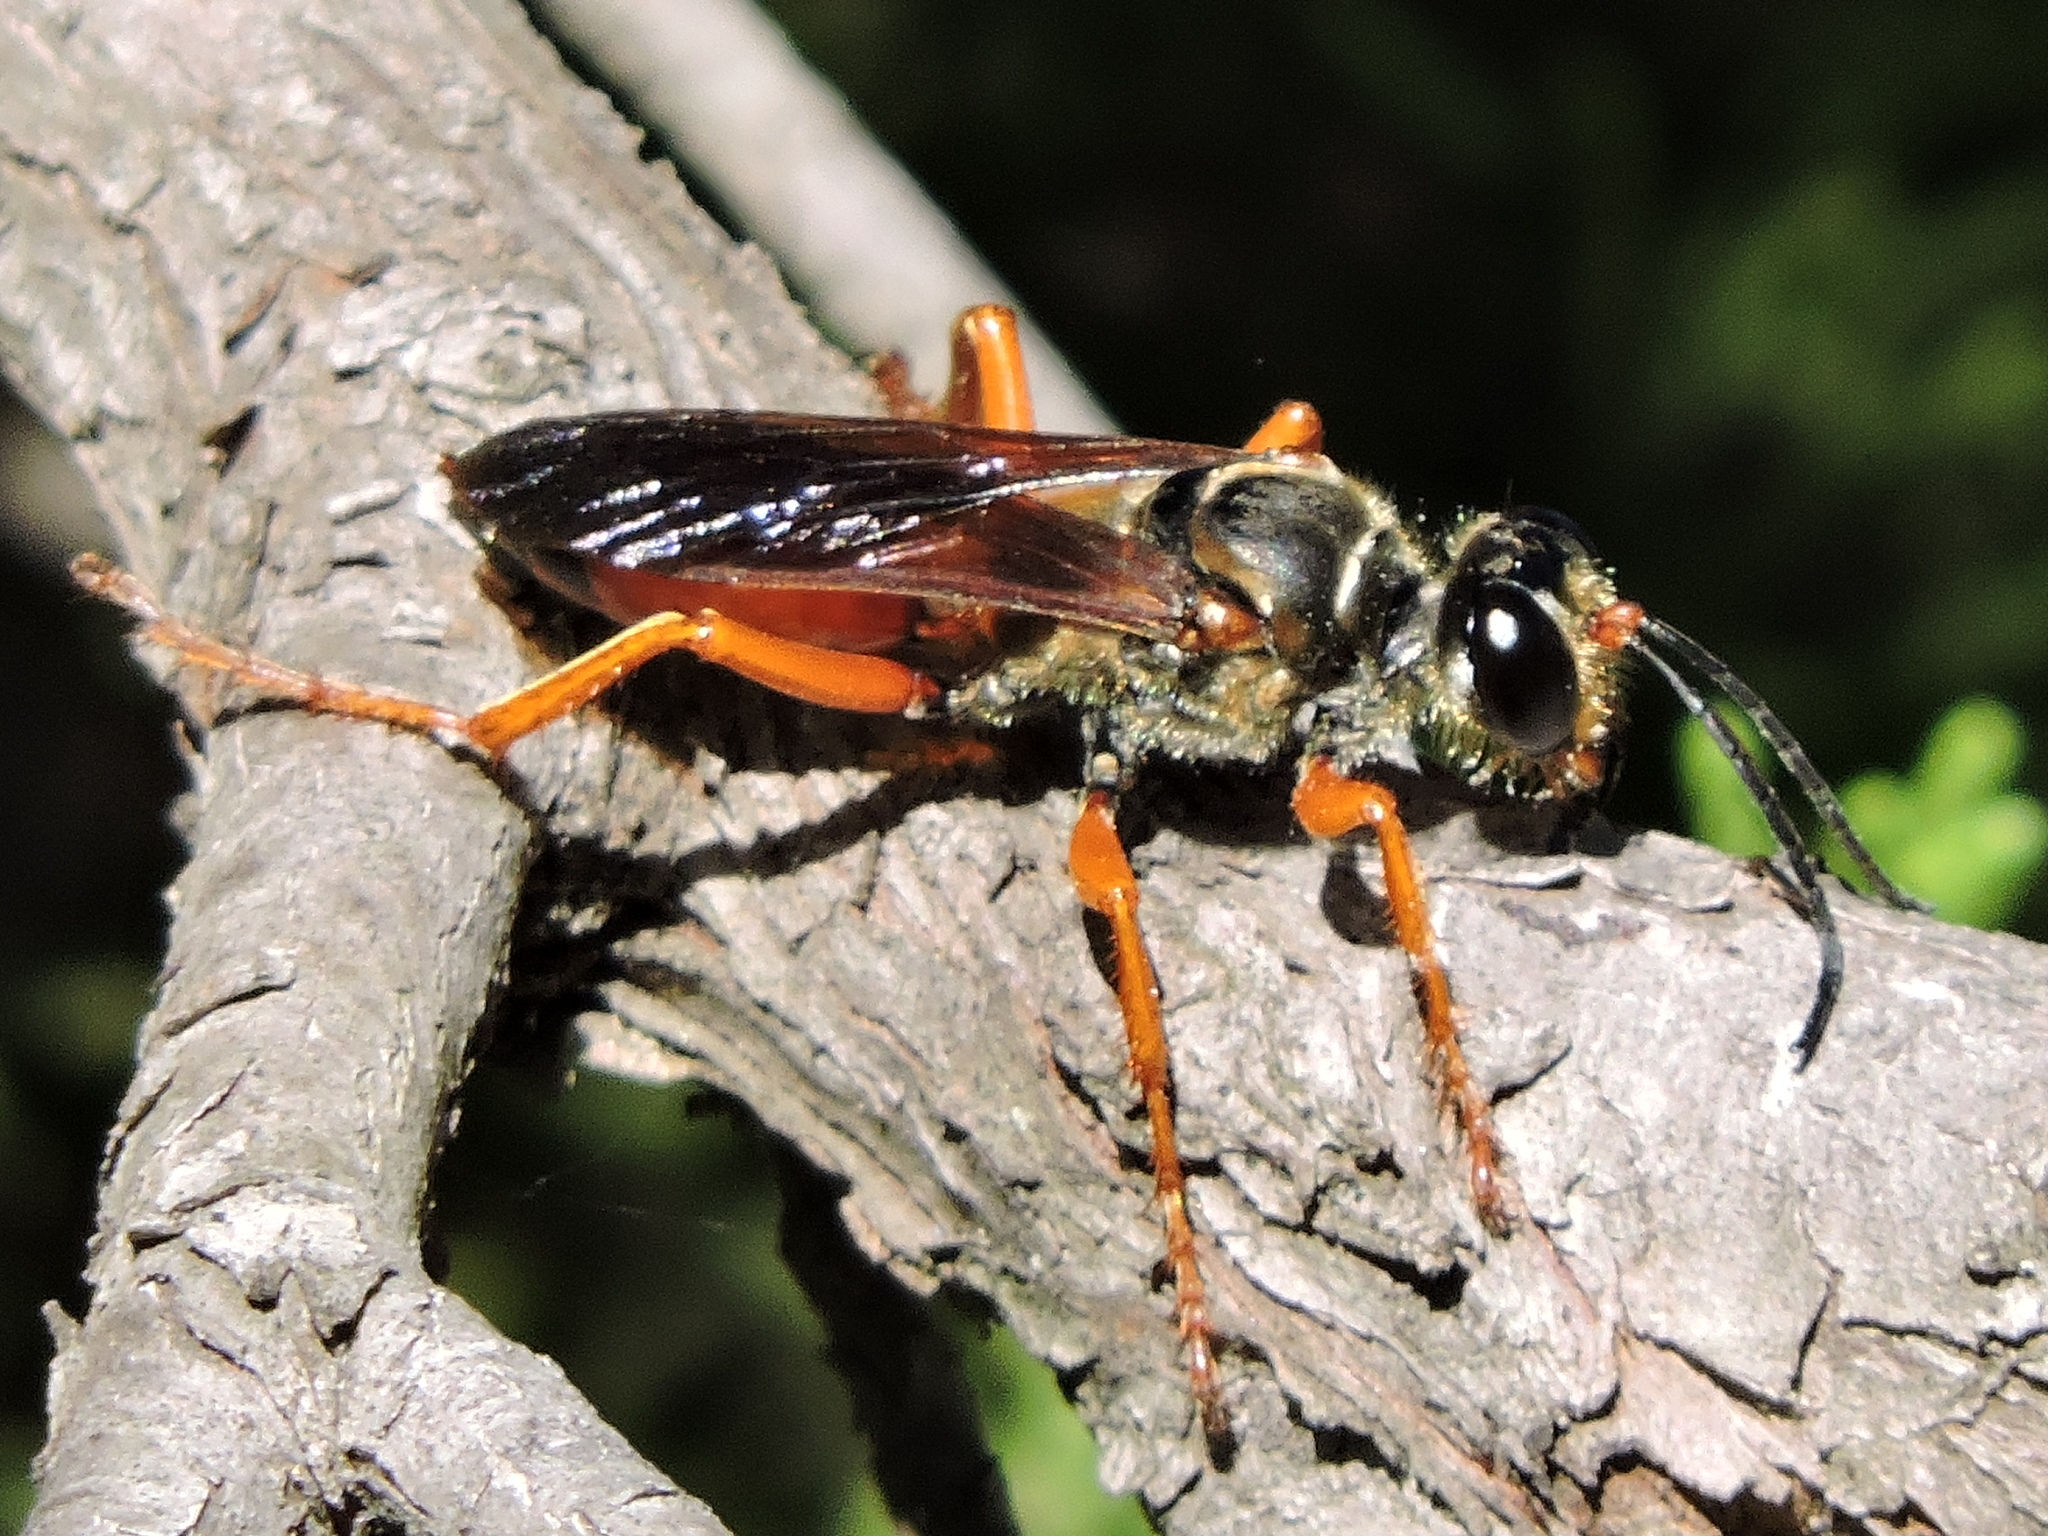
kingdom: Animalia
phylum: Arthropoda
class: Insecta
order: Hymenoptera
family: Sphecidae
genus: Sphex
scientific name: Sphex ichneumoneus
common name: Great golden digger wasp
